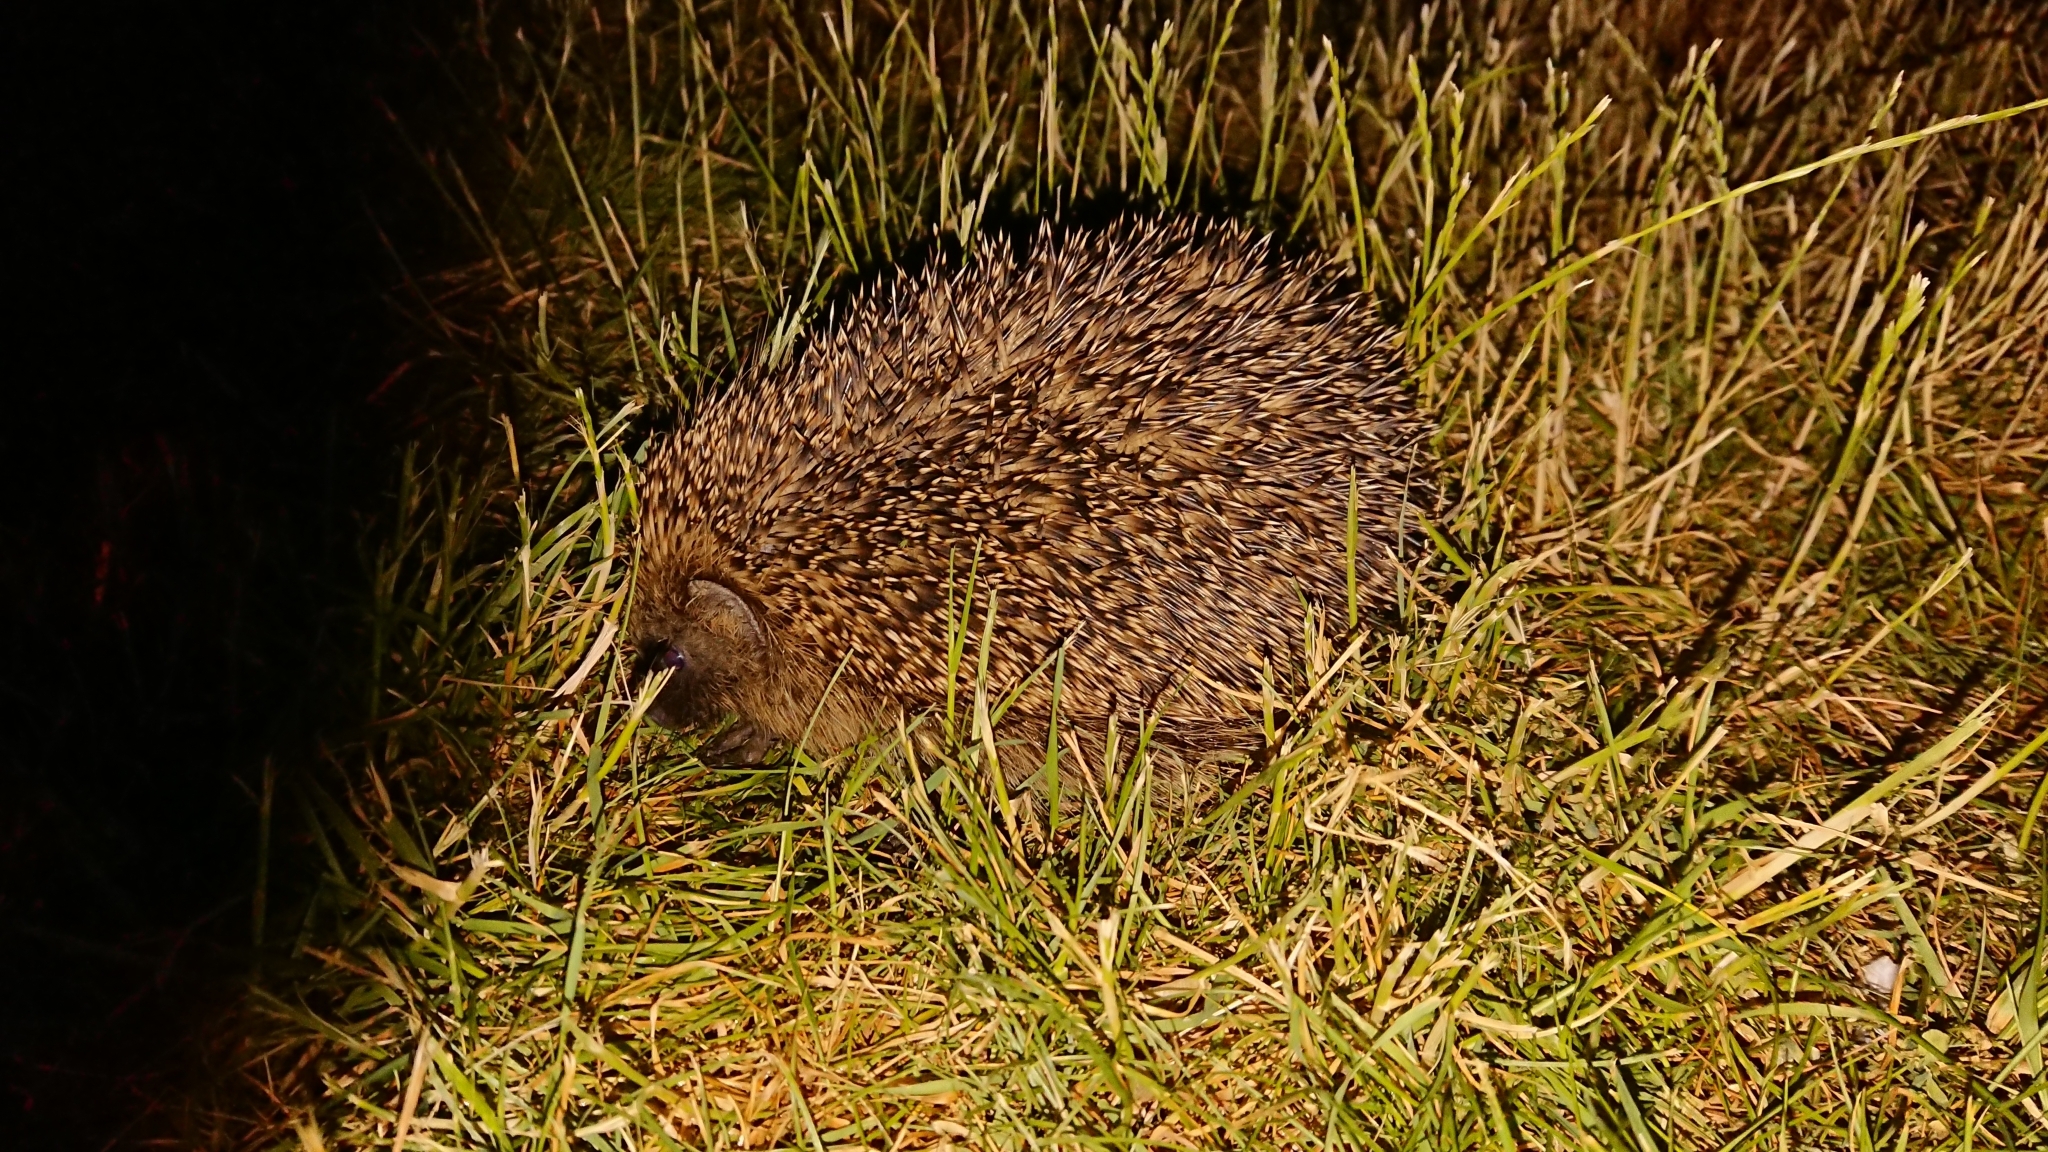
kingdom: Animalia
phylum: Chordata
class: Mammalia
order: Erinaceomorpha
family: Erinaceidae
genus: Erinaceus
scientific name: Erinaceus europaeus
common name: West european hedgehog
